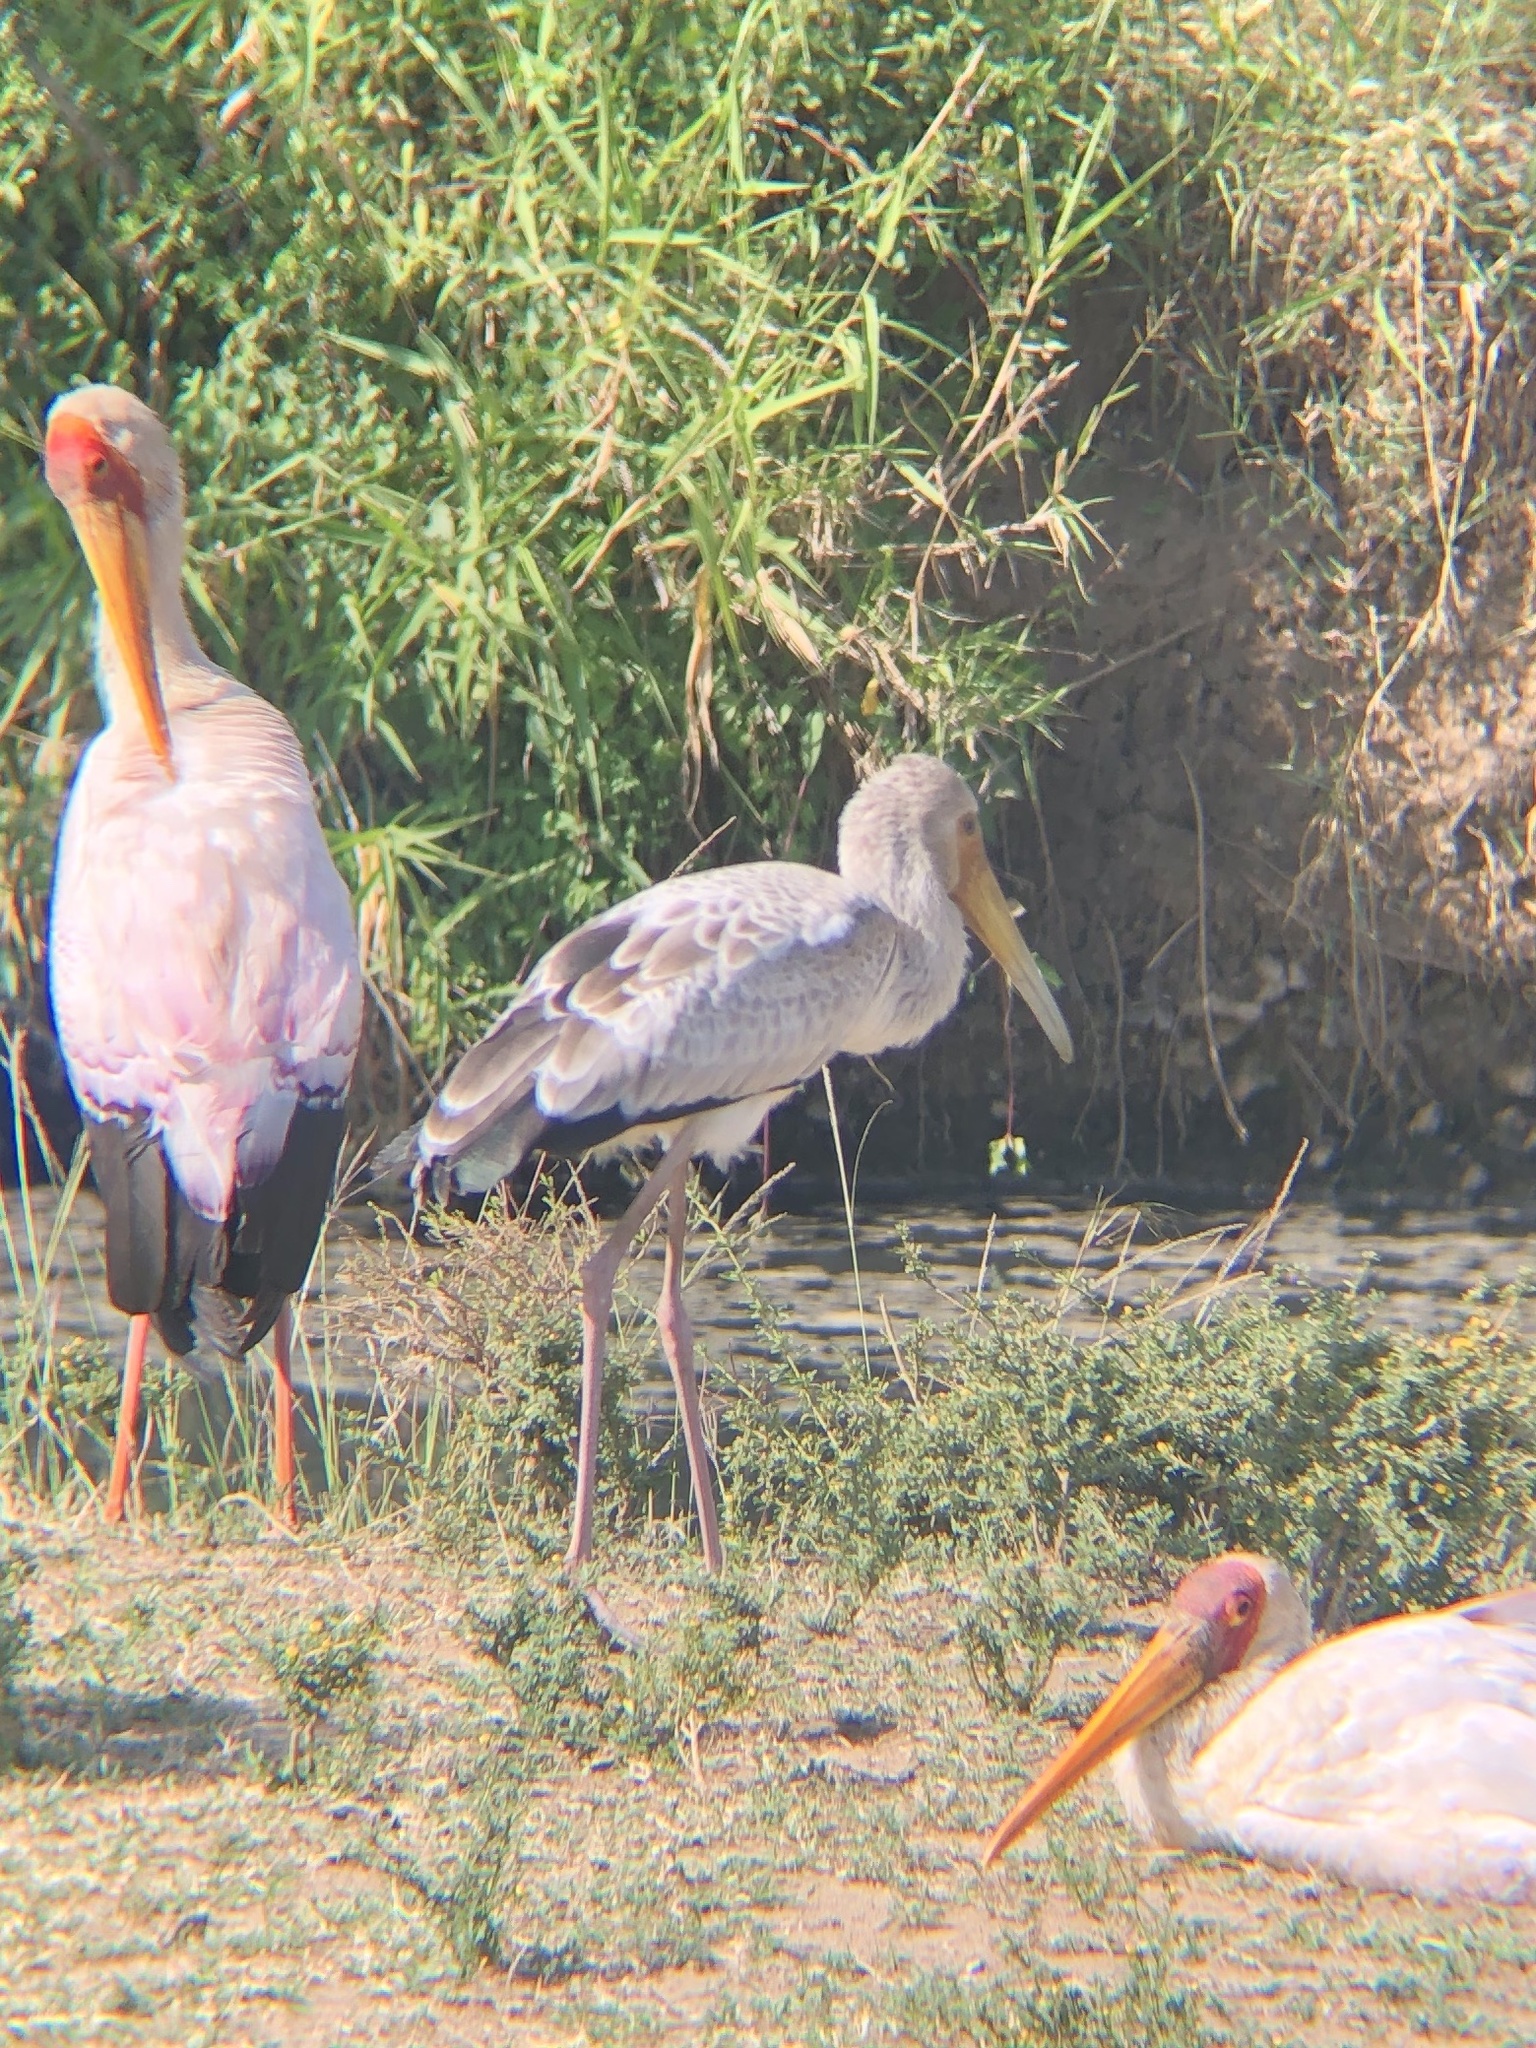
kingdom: Animalia
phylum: Chordata
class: Aves
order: Ciconiiformes
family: Ciconiidae
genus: Mycteria
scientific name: Mycteria ibis
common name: Yellow-billed stork
